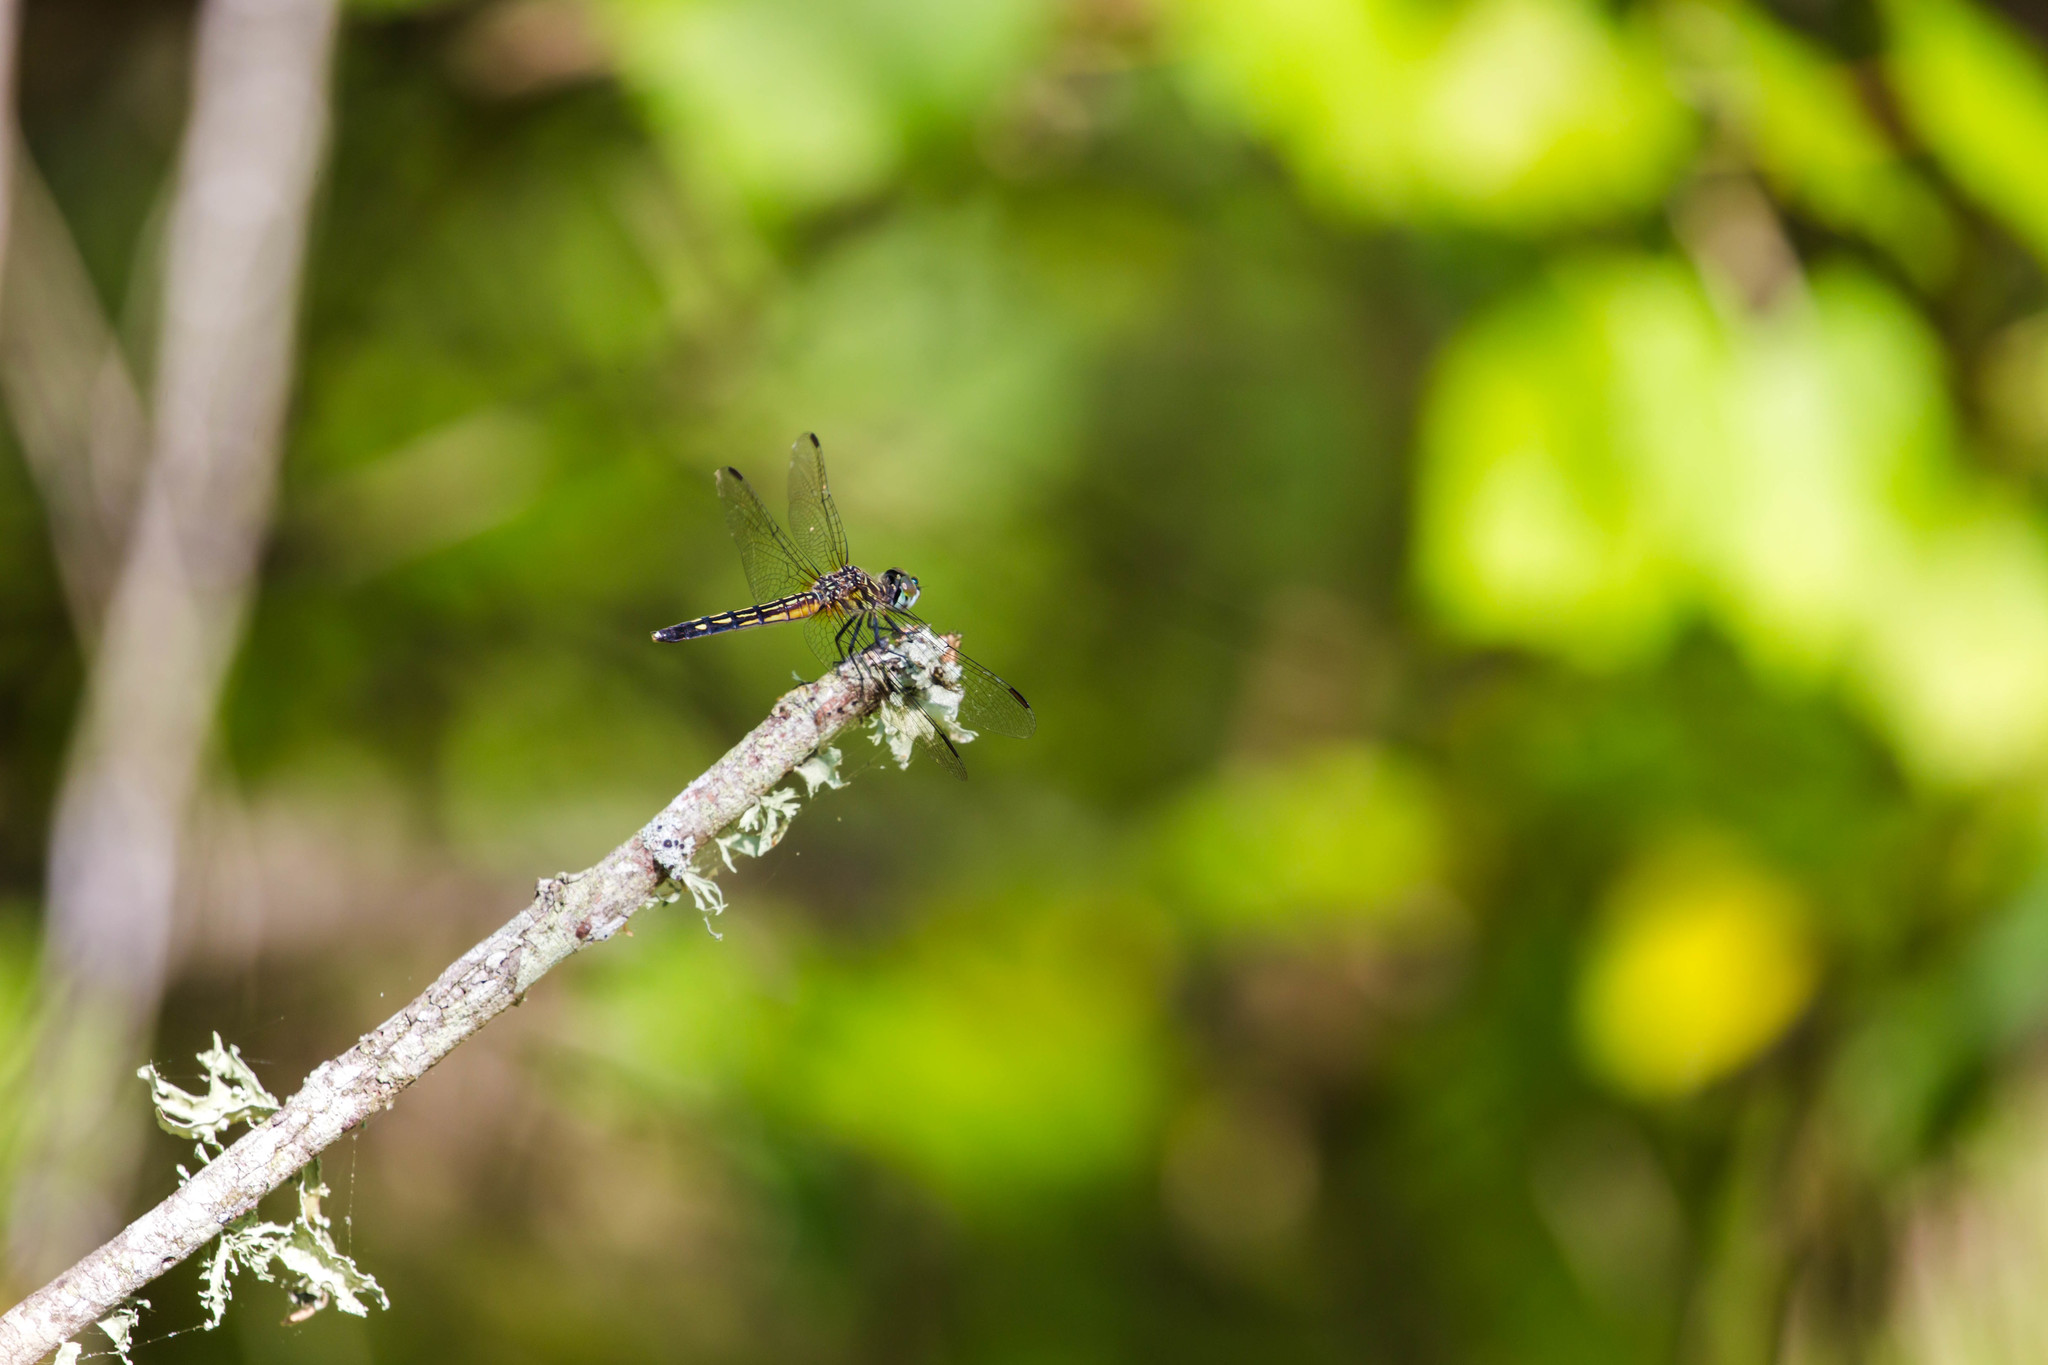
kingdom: Animalia
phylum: Arthropoda
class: Insecta
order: Odonata
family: Libellulidae
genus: Pachydiplax
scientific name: Pachydiplax longipennis
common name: Blue dasher
